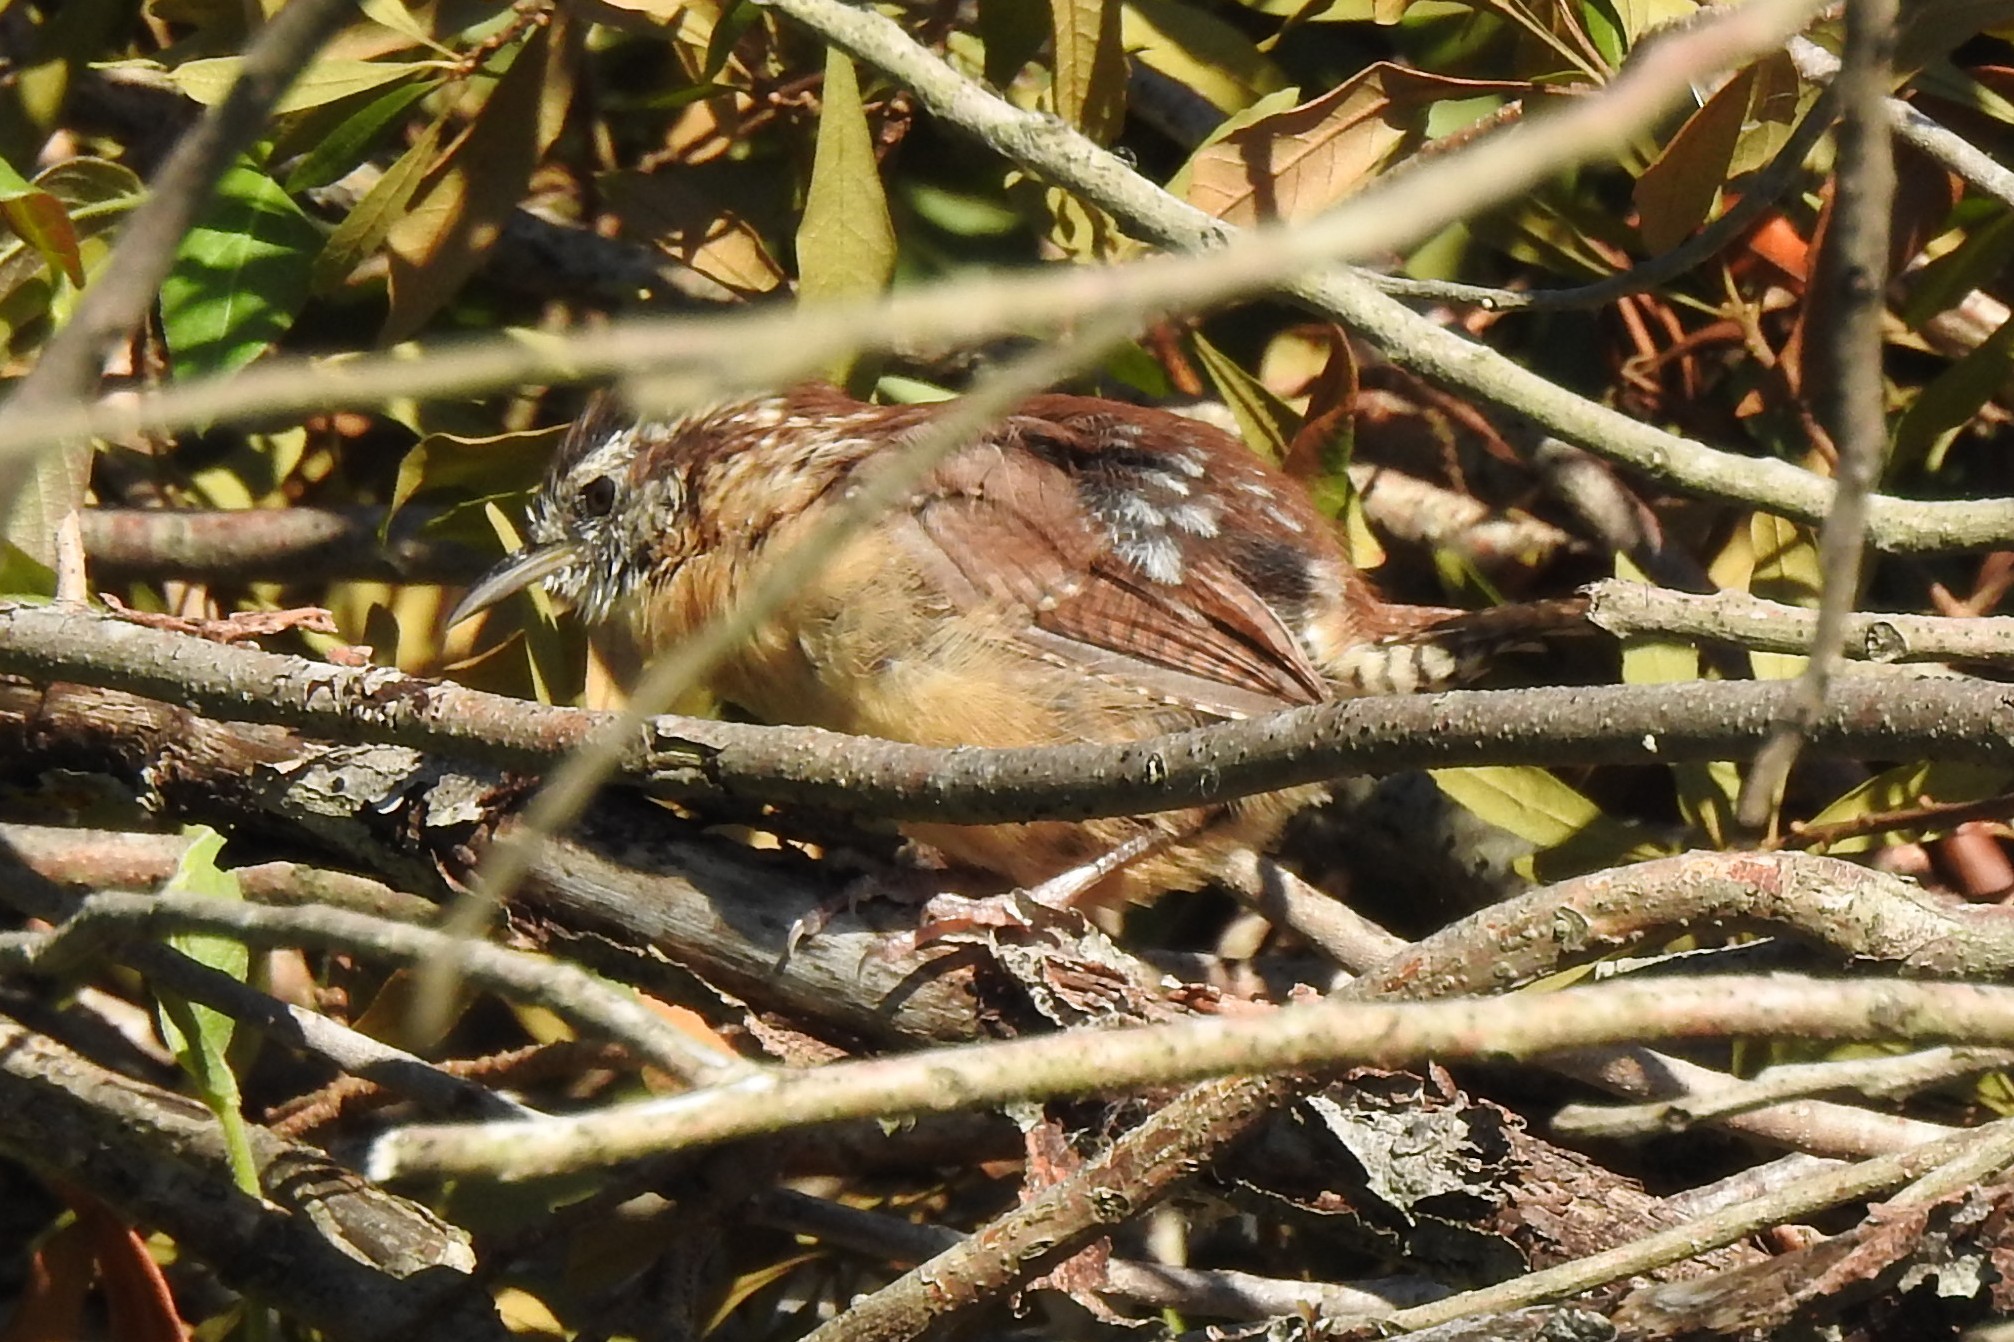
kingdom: Animalia
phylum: Chordata
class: Aves
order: Passeriformes
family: Troglodytidae
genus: Thryothorus
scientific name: Thryothorus ludovicianus
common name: Carolina wren
